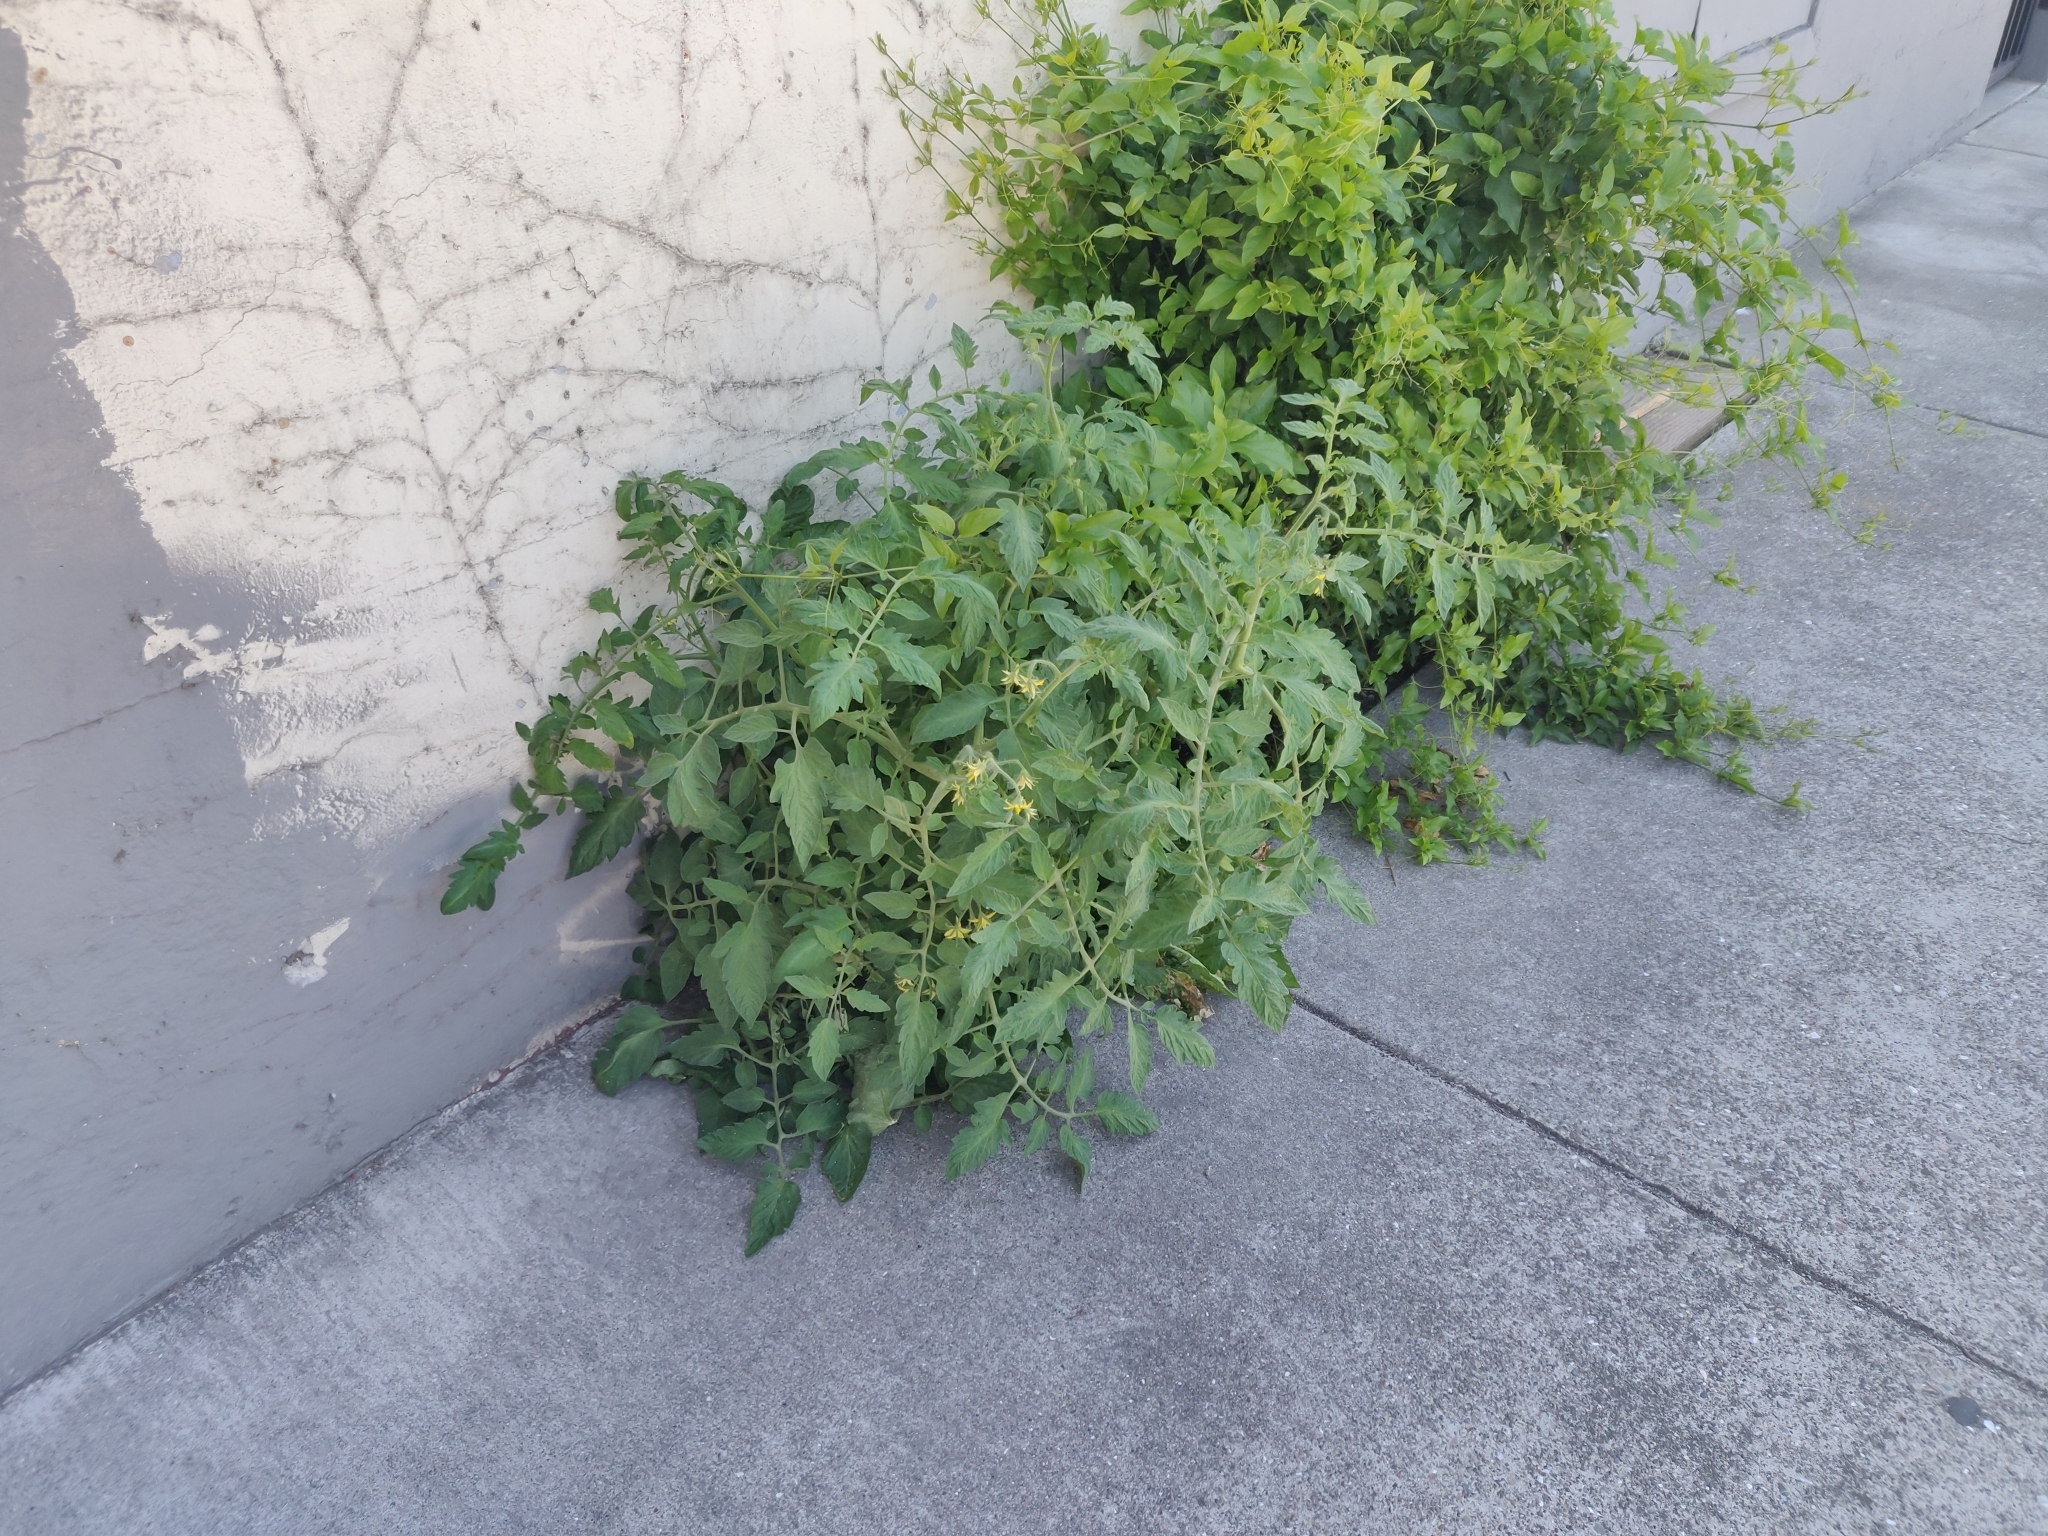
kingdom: Plantae
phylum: Tracheophyta
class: Magnoliopsida
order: Solanales
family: Solanaceae
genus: Solanum
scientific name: Solanum lycopersicum
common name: Garden tomato
